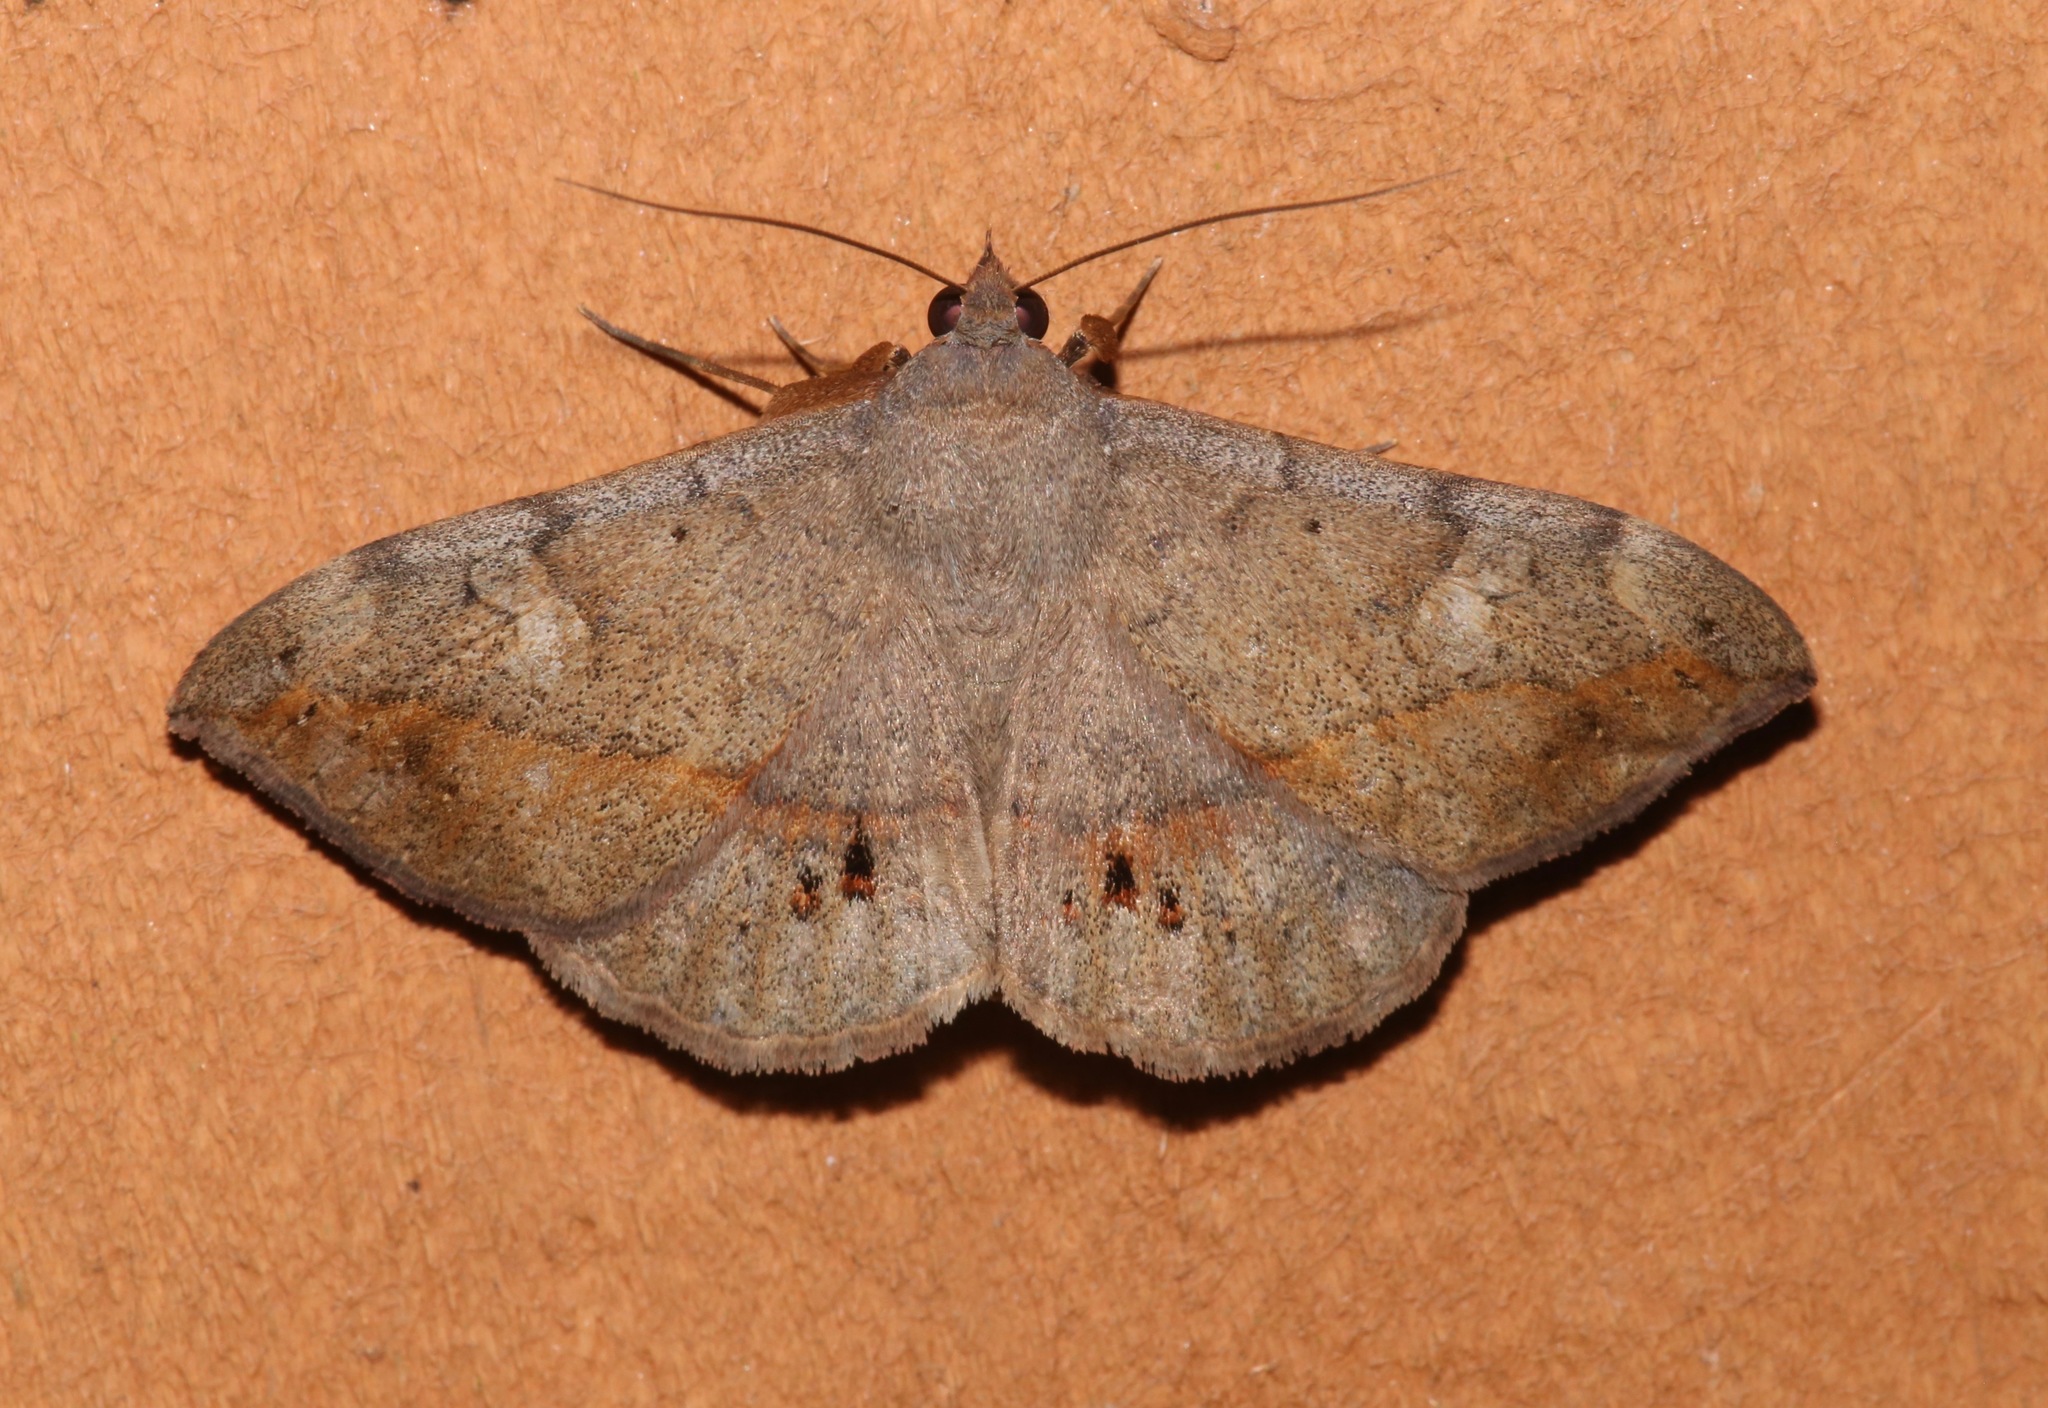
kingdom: Animalia
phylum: Arthropoda
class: Insecta
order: Lepidoptera
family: Erebidae
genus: Anticarsia
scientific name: Anticarsia gemmatalis
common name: Cutworm moth
